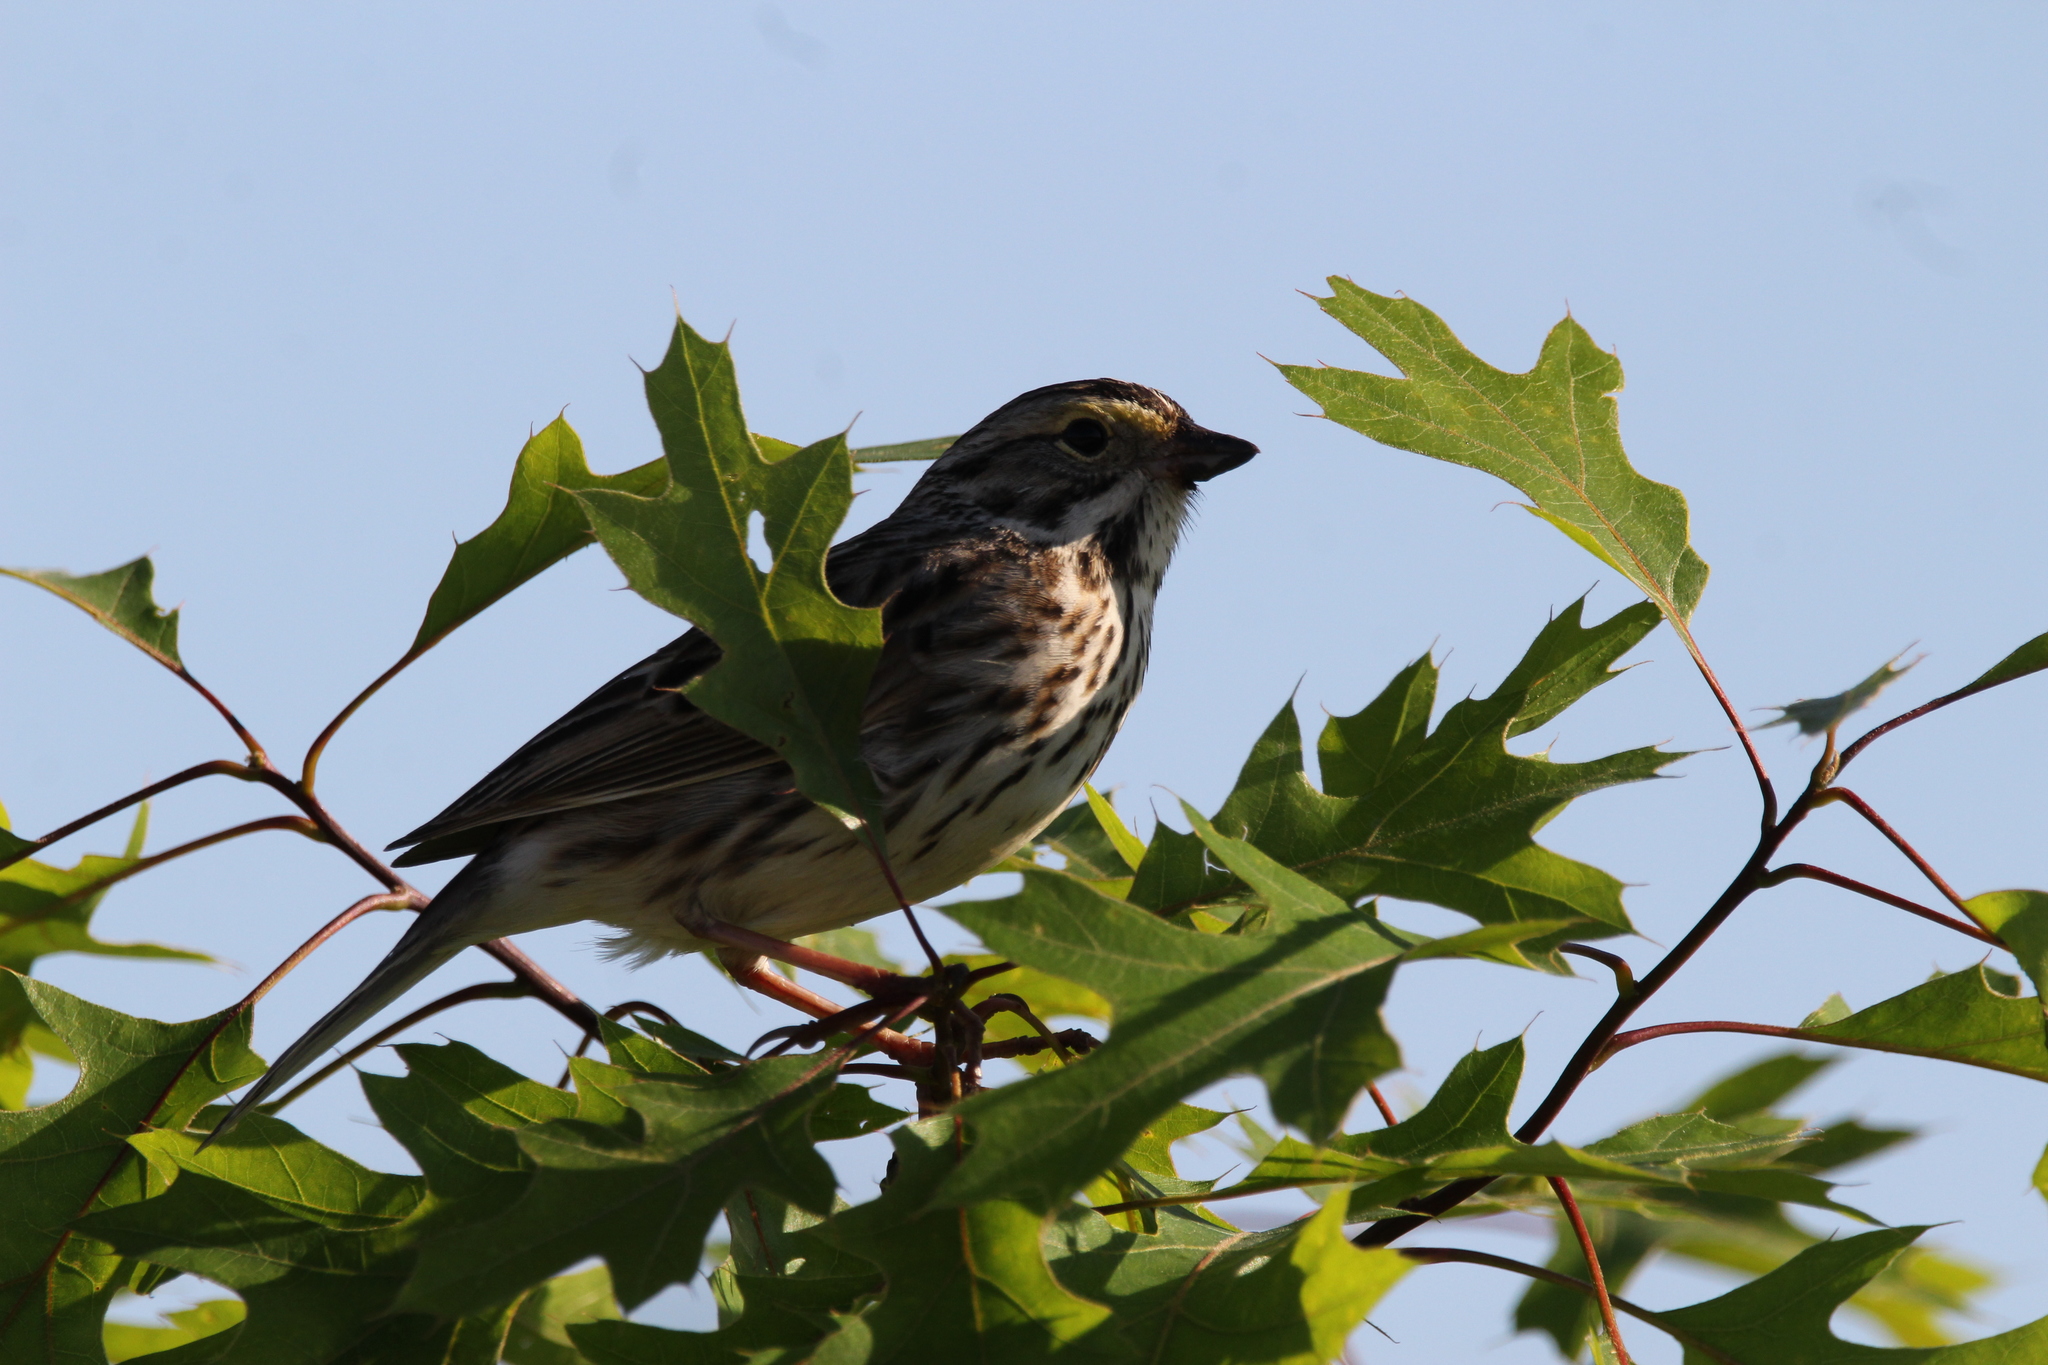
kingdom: Animalia
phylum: Chordata
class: Aves
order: Passeriformes
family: Passerellidae
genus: Passerculus
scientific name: Passerculus sandwichensis
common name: Savannah sparrow
